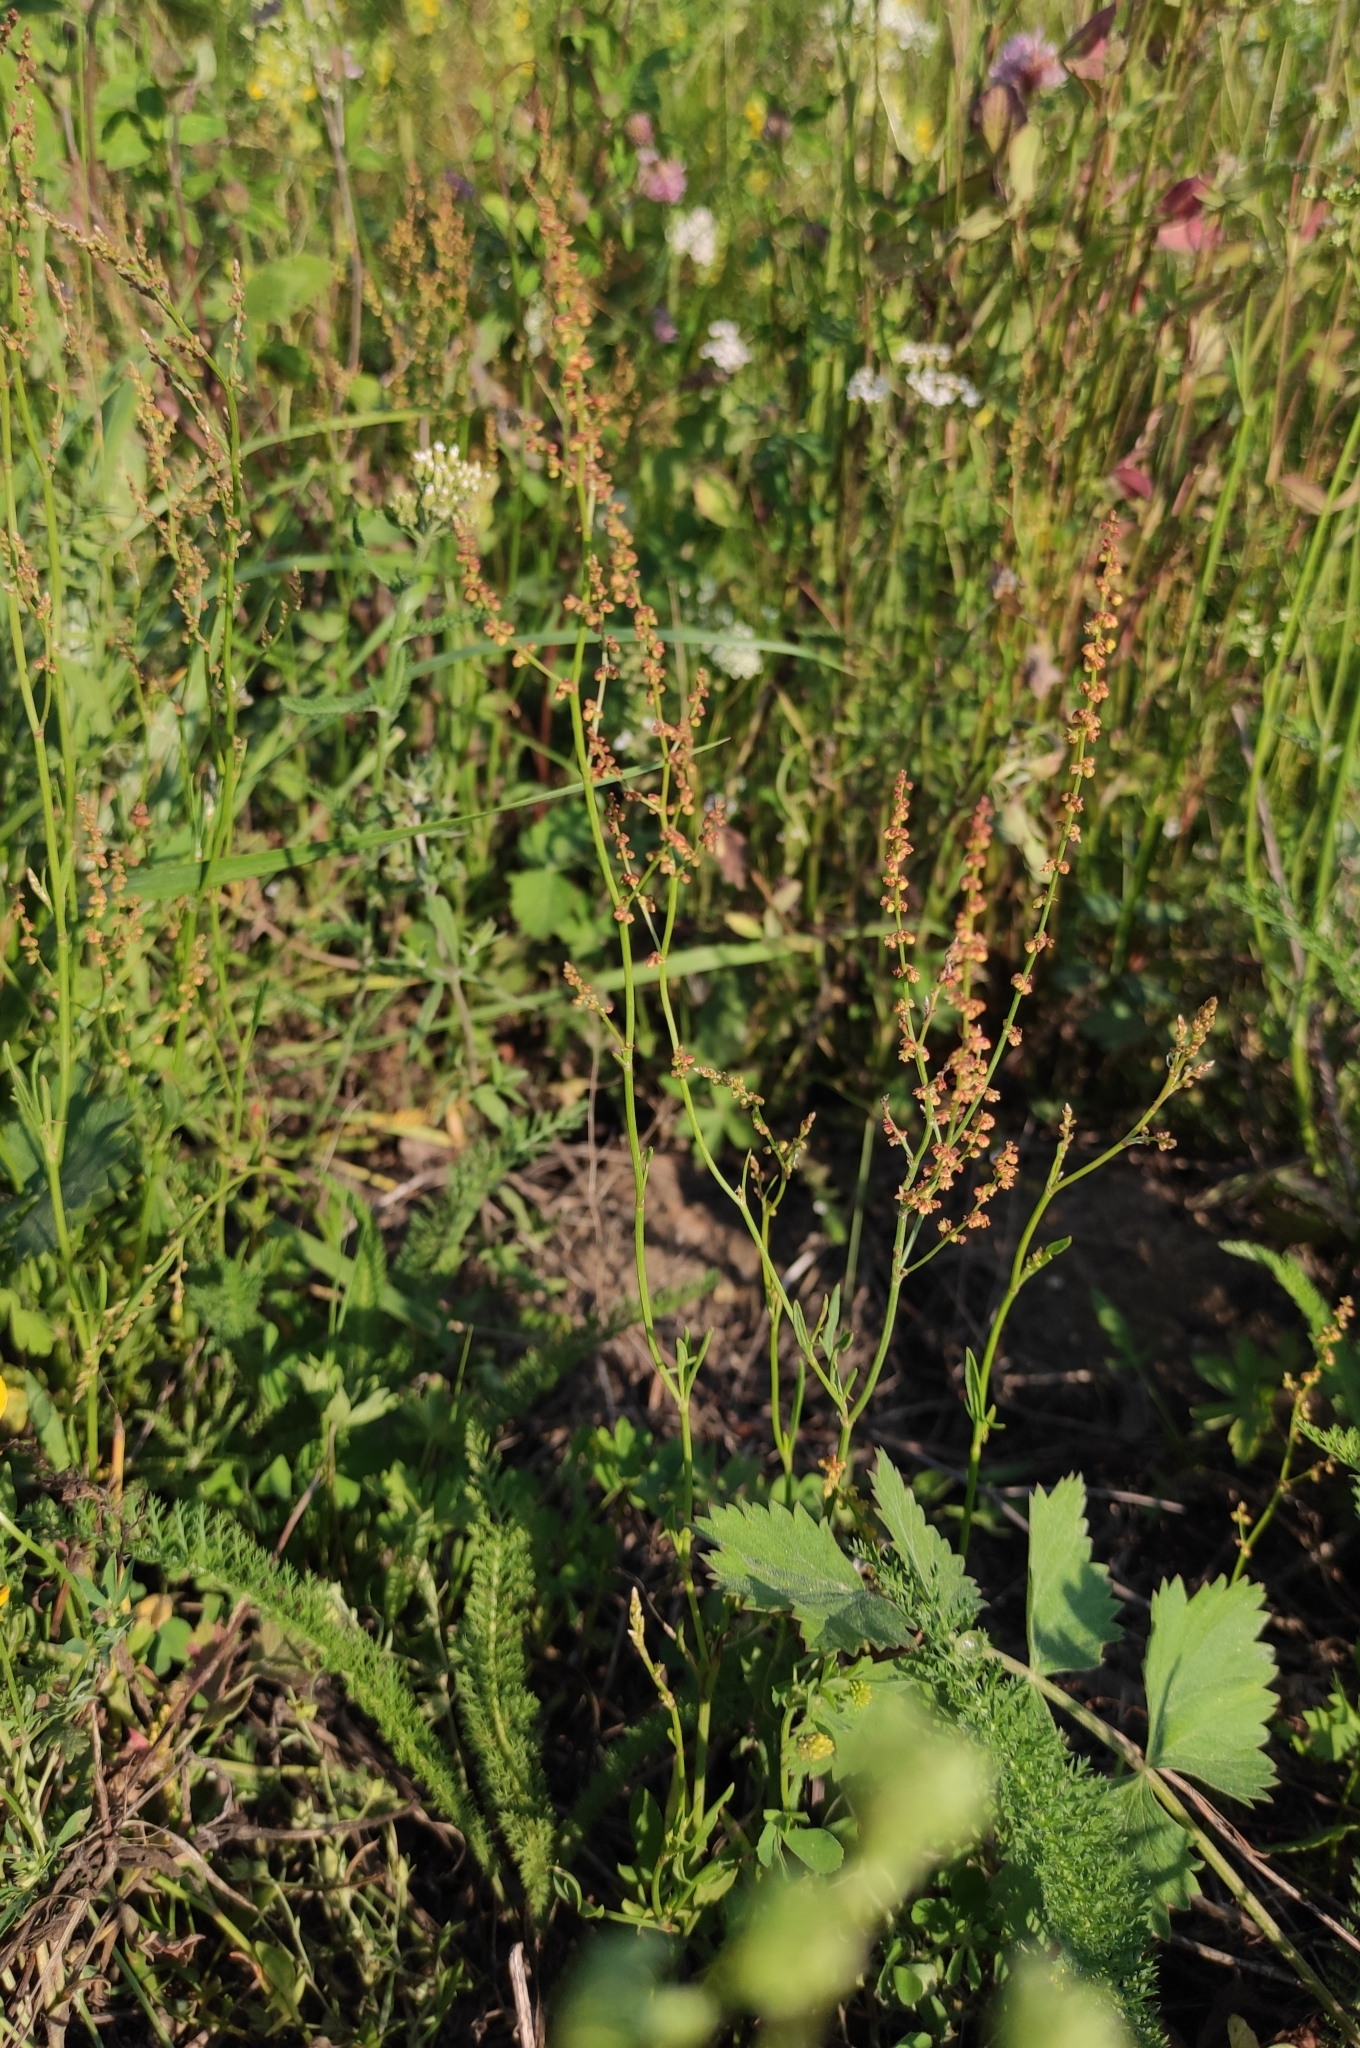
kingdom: Plantae
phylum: Tracheophyta
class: Magnoliopsida
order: Caryophyllales
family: Polygonaceae
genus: Rumex
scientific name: Rumex acetosella
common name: Common sheep sorrel
